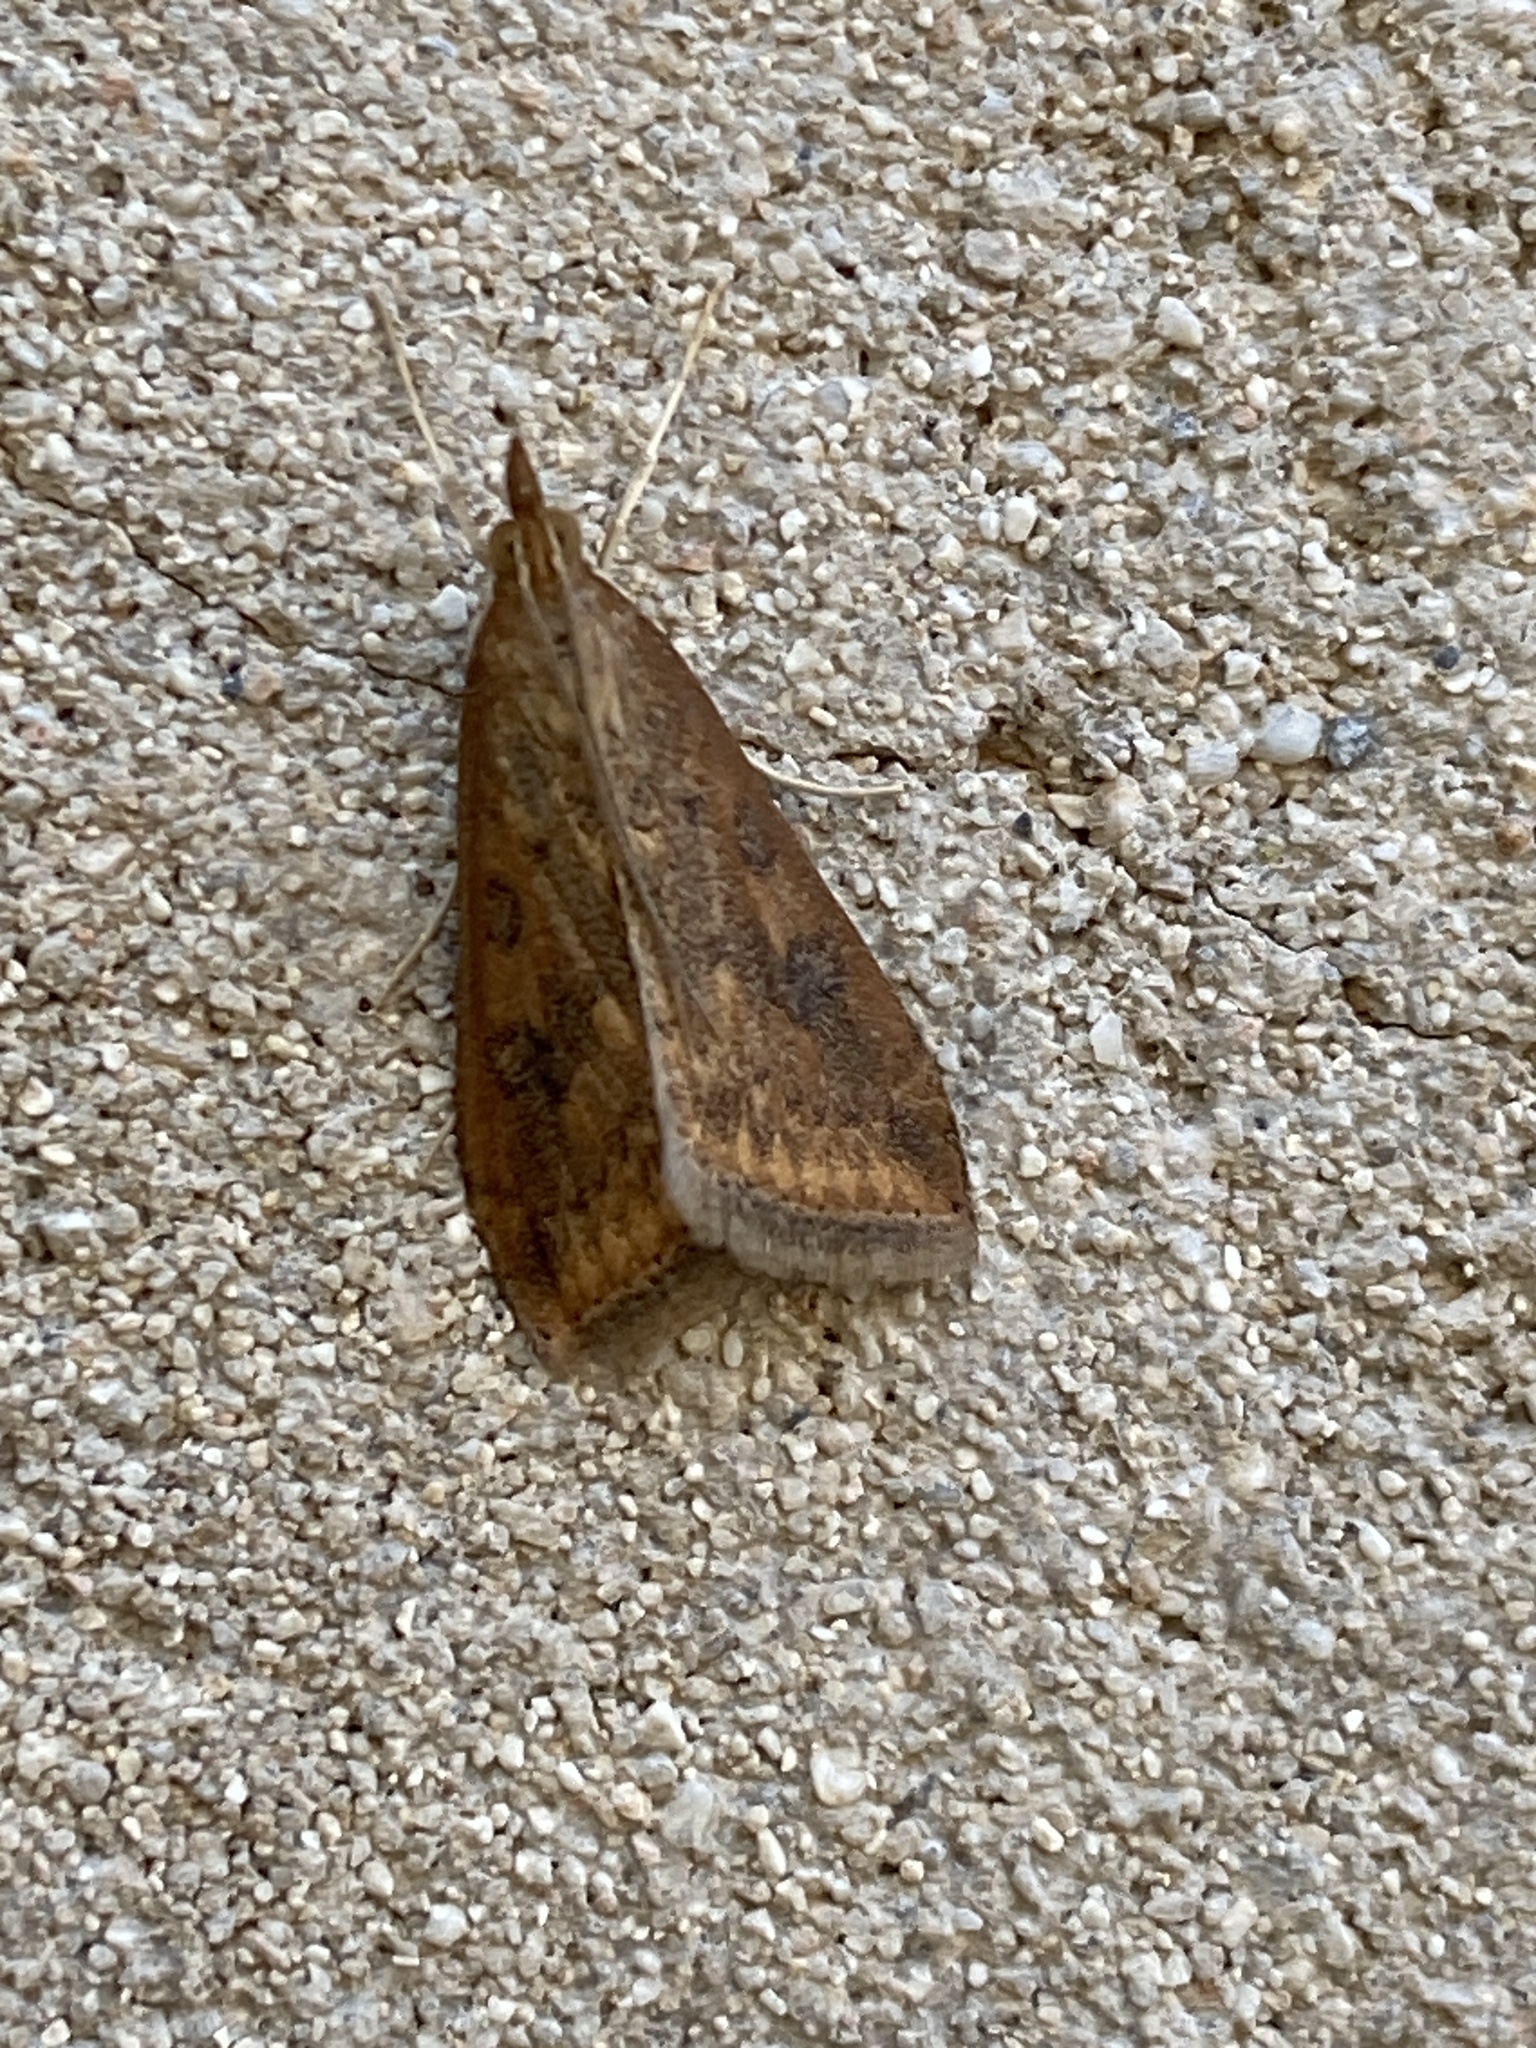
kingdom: Animalia
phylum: Arthropoda
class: Insecta
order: Lepidoptera
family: Crambidae
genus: Udea
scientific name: Udea ferrugalis
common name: Rusty dot
